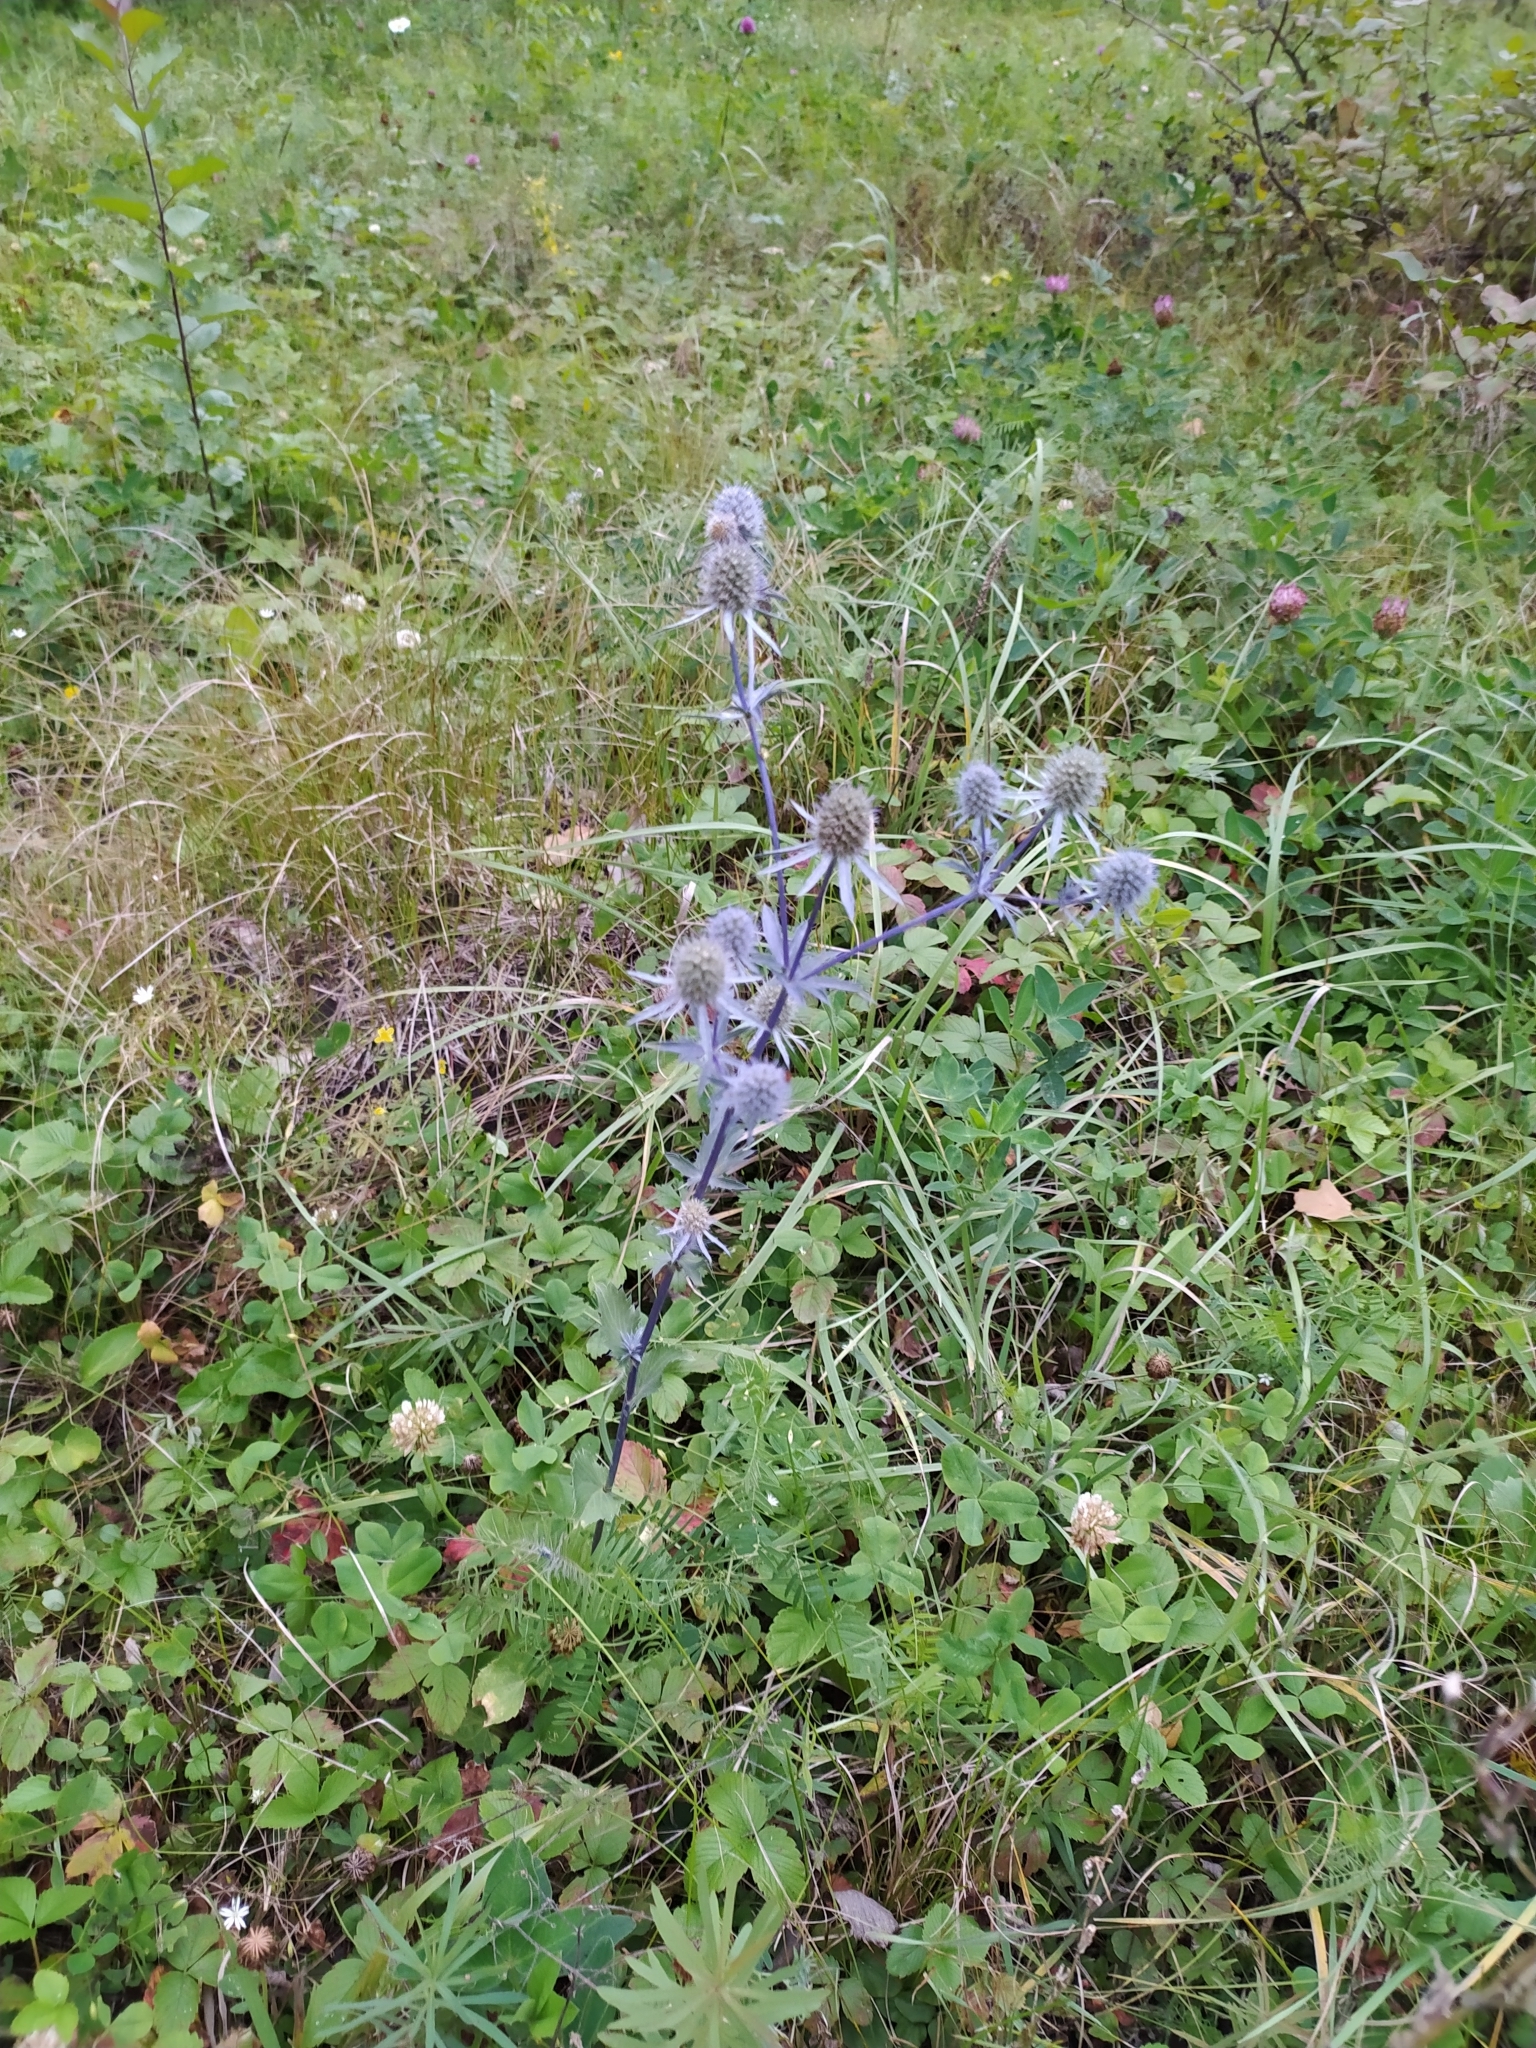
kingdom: Plantae
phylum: Tracheophyta
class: Magnoliopsida
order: Apiales
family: Apiaceae
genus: Eryngium
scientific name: Eryngium planum
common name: Blue eryngo
